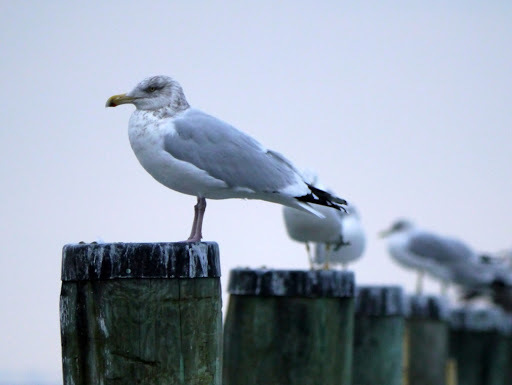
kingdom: Animalia
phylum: Chordata
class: Aves
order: Charadriiformes
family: Laridae
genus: Larus
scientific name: Larus argentatus
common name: Herring gull
